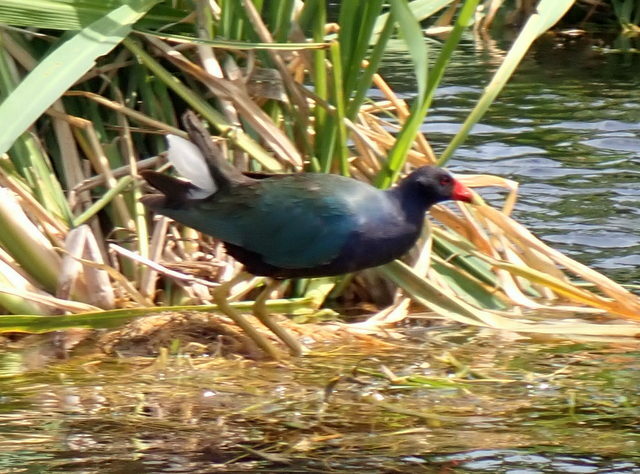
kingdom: Animalia
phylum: Chordata
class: Aves
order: Gruiformes
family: Rallidae
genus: Porphyrio
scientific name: Porphyrio martinica
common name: Purple gallinule
